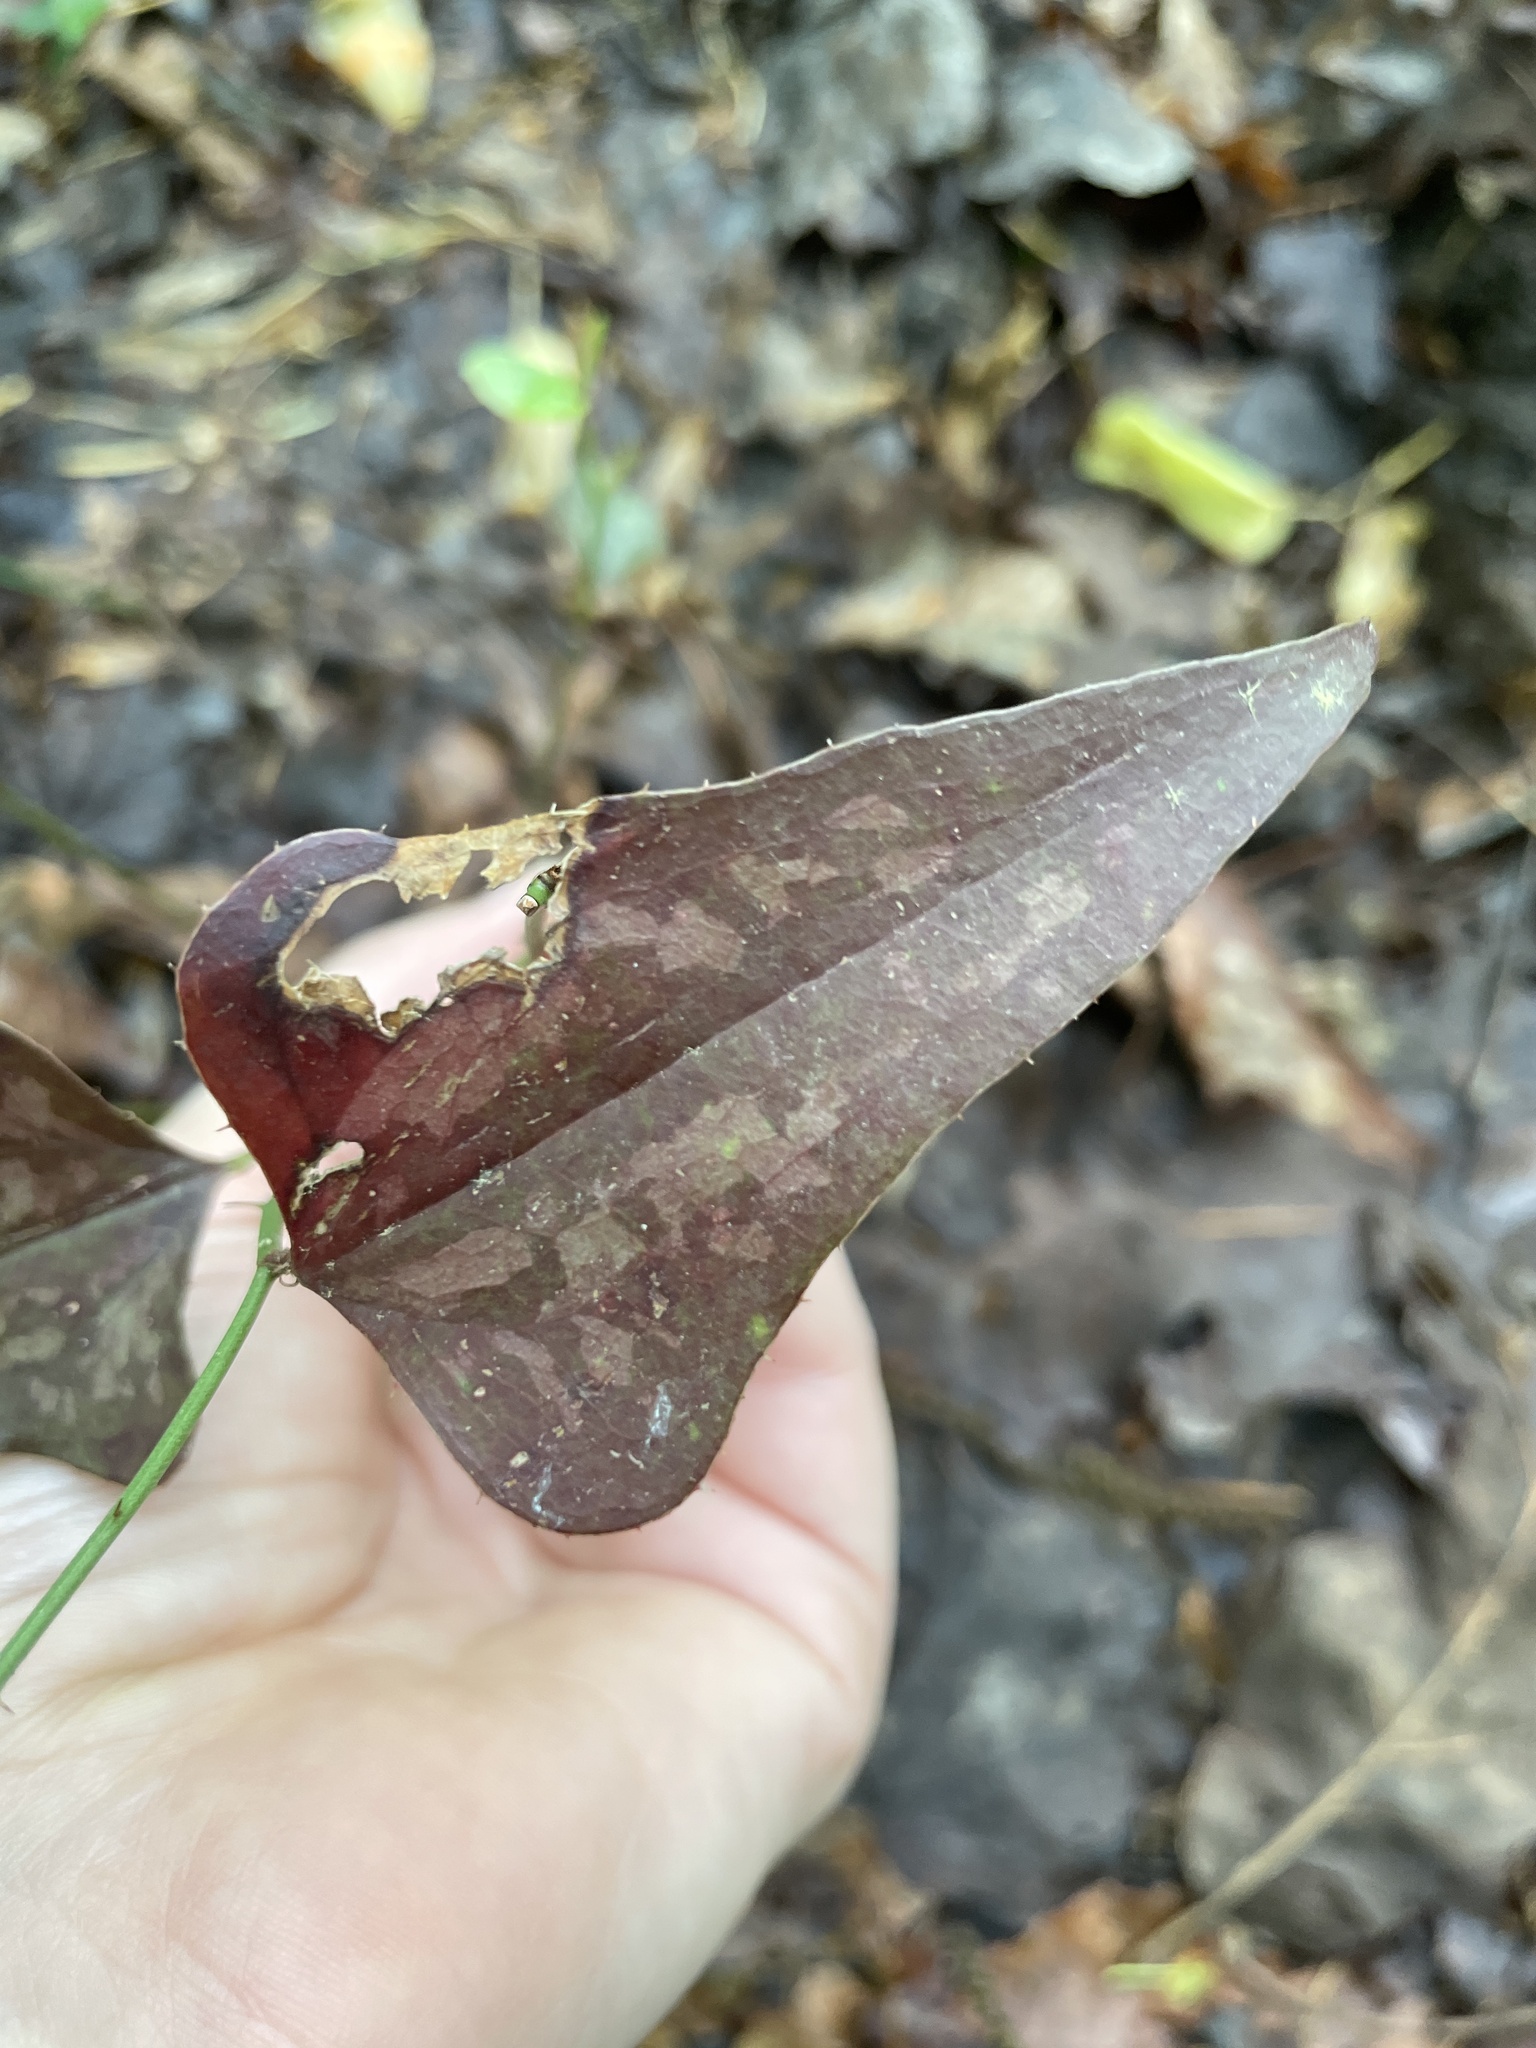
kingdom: Plantae
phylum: Tracheophyta
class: Liliopsida
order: Liliales
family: Smilacaceae
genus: Smilax
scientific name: Smilax bona-nox
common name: Catbrier
